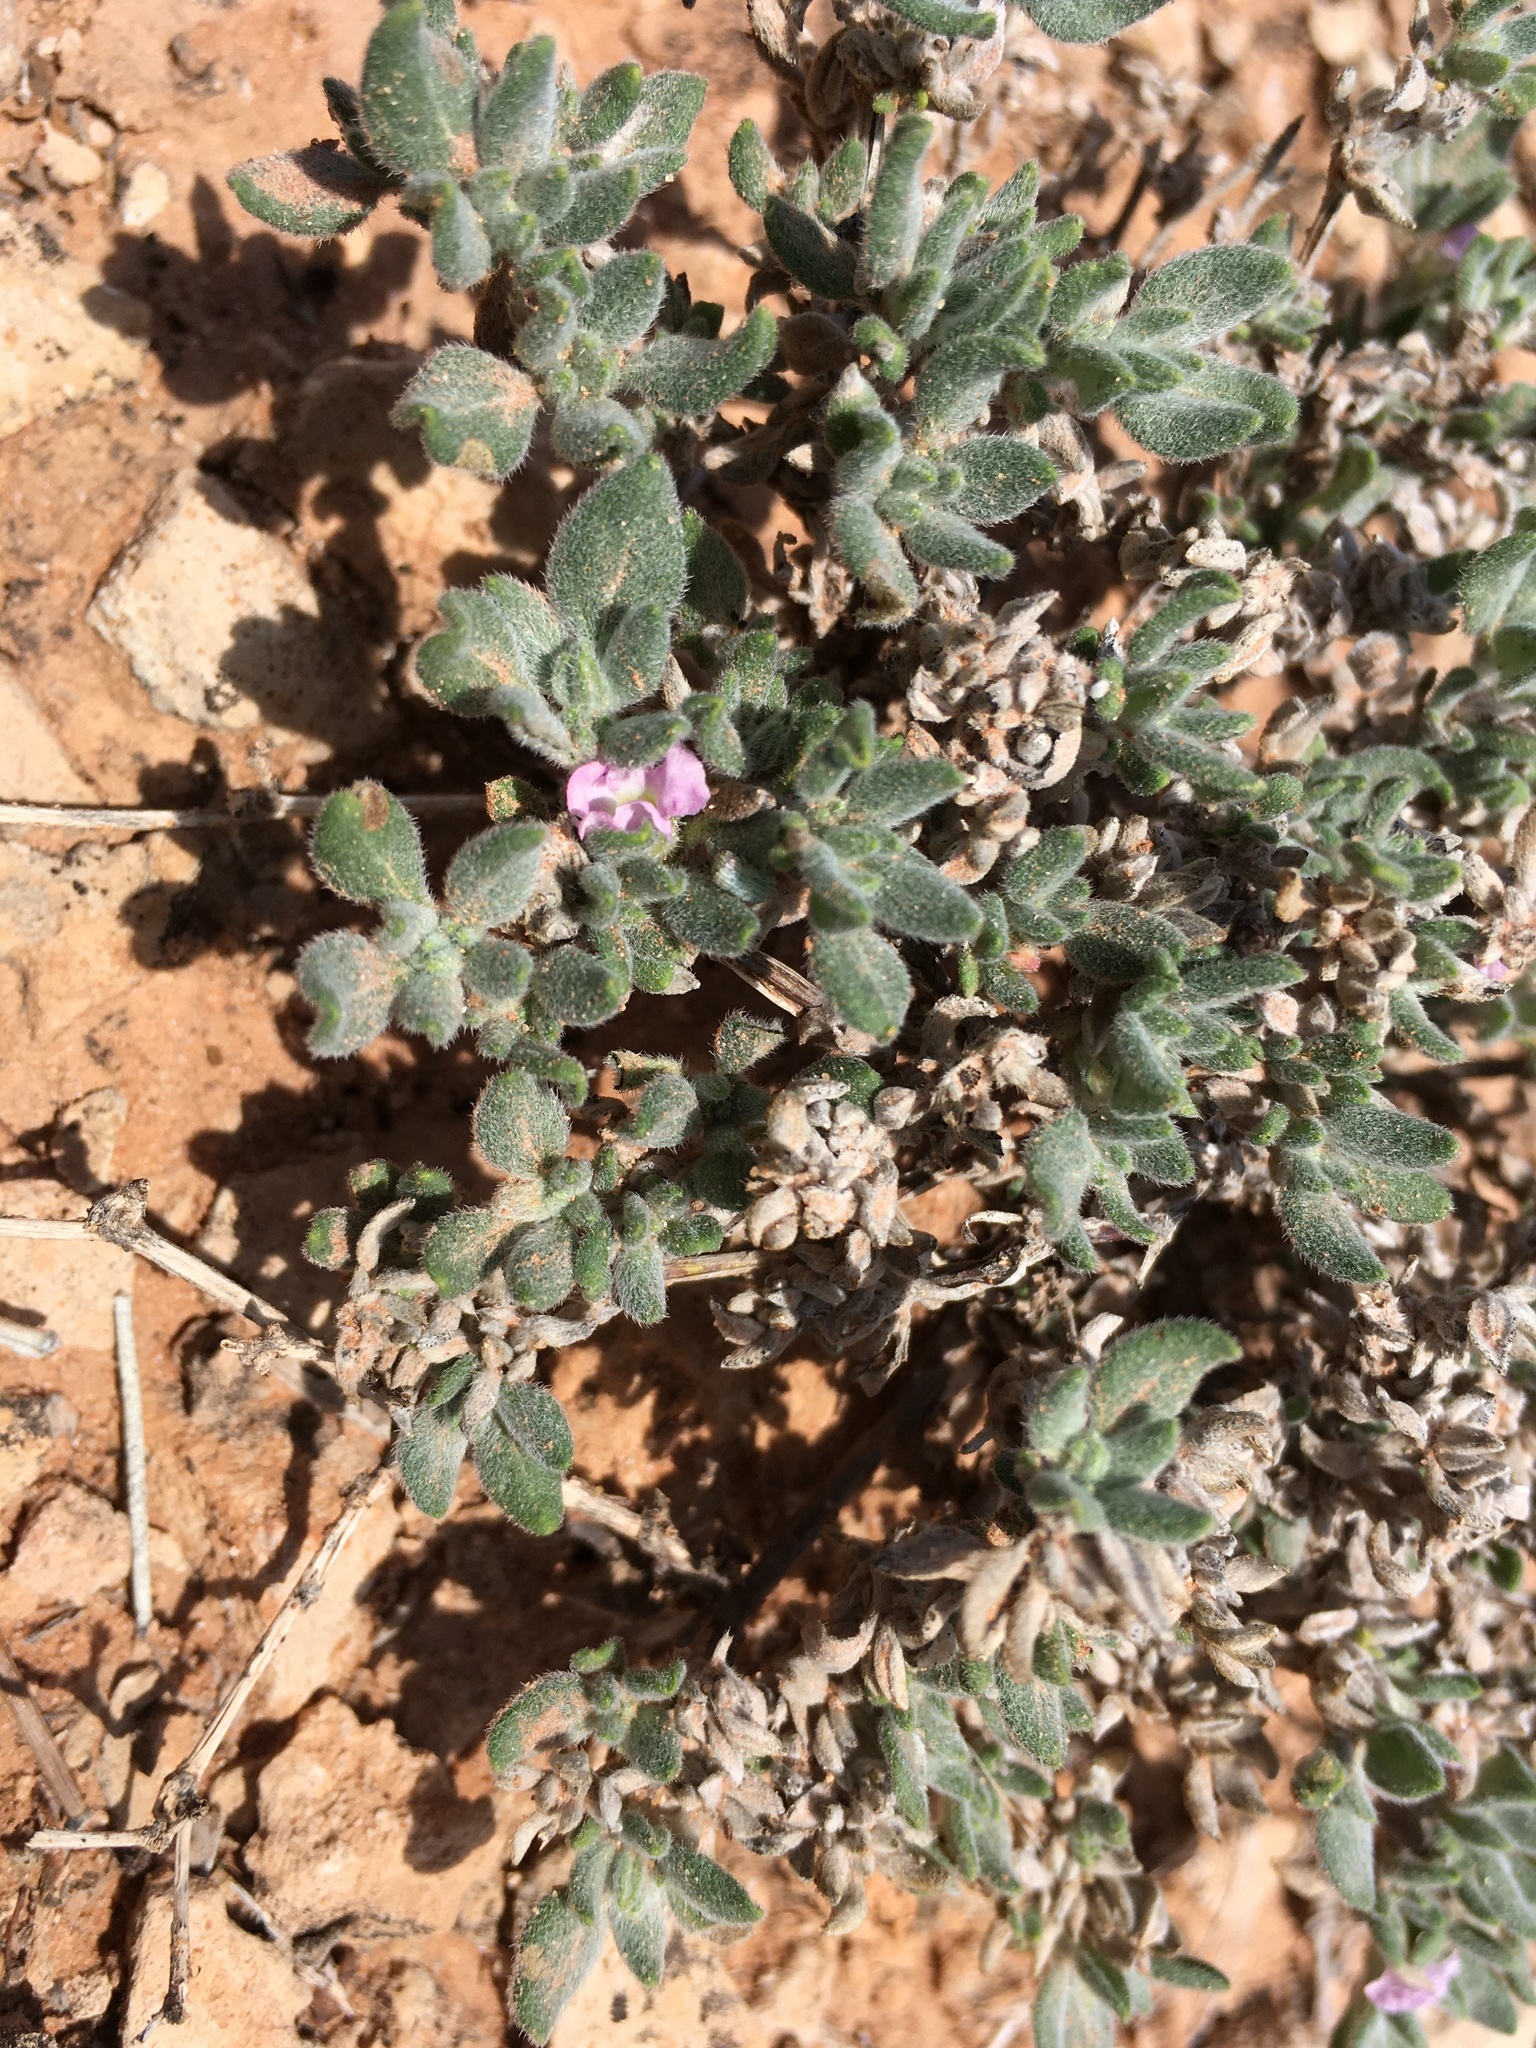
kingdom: Plantae
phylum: Tracheophyta
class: Magnoliopsida
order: Boraginales
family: Ehretiaceae
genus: Tiquilia
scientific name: Tiquilia canescens
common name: Hairy tiquilia
